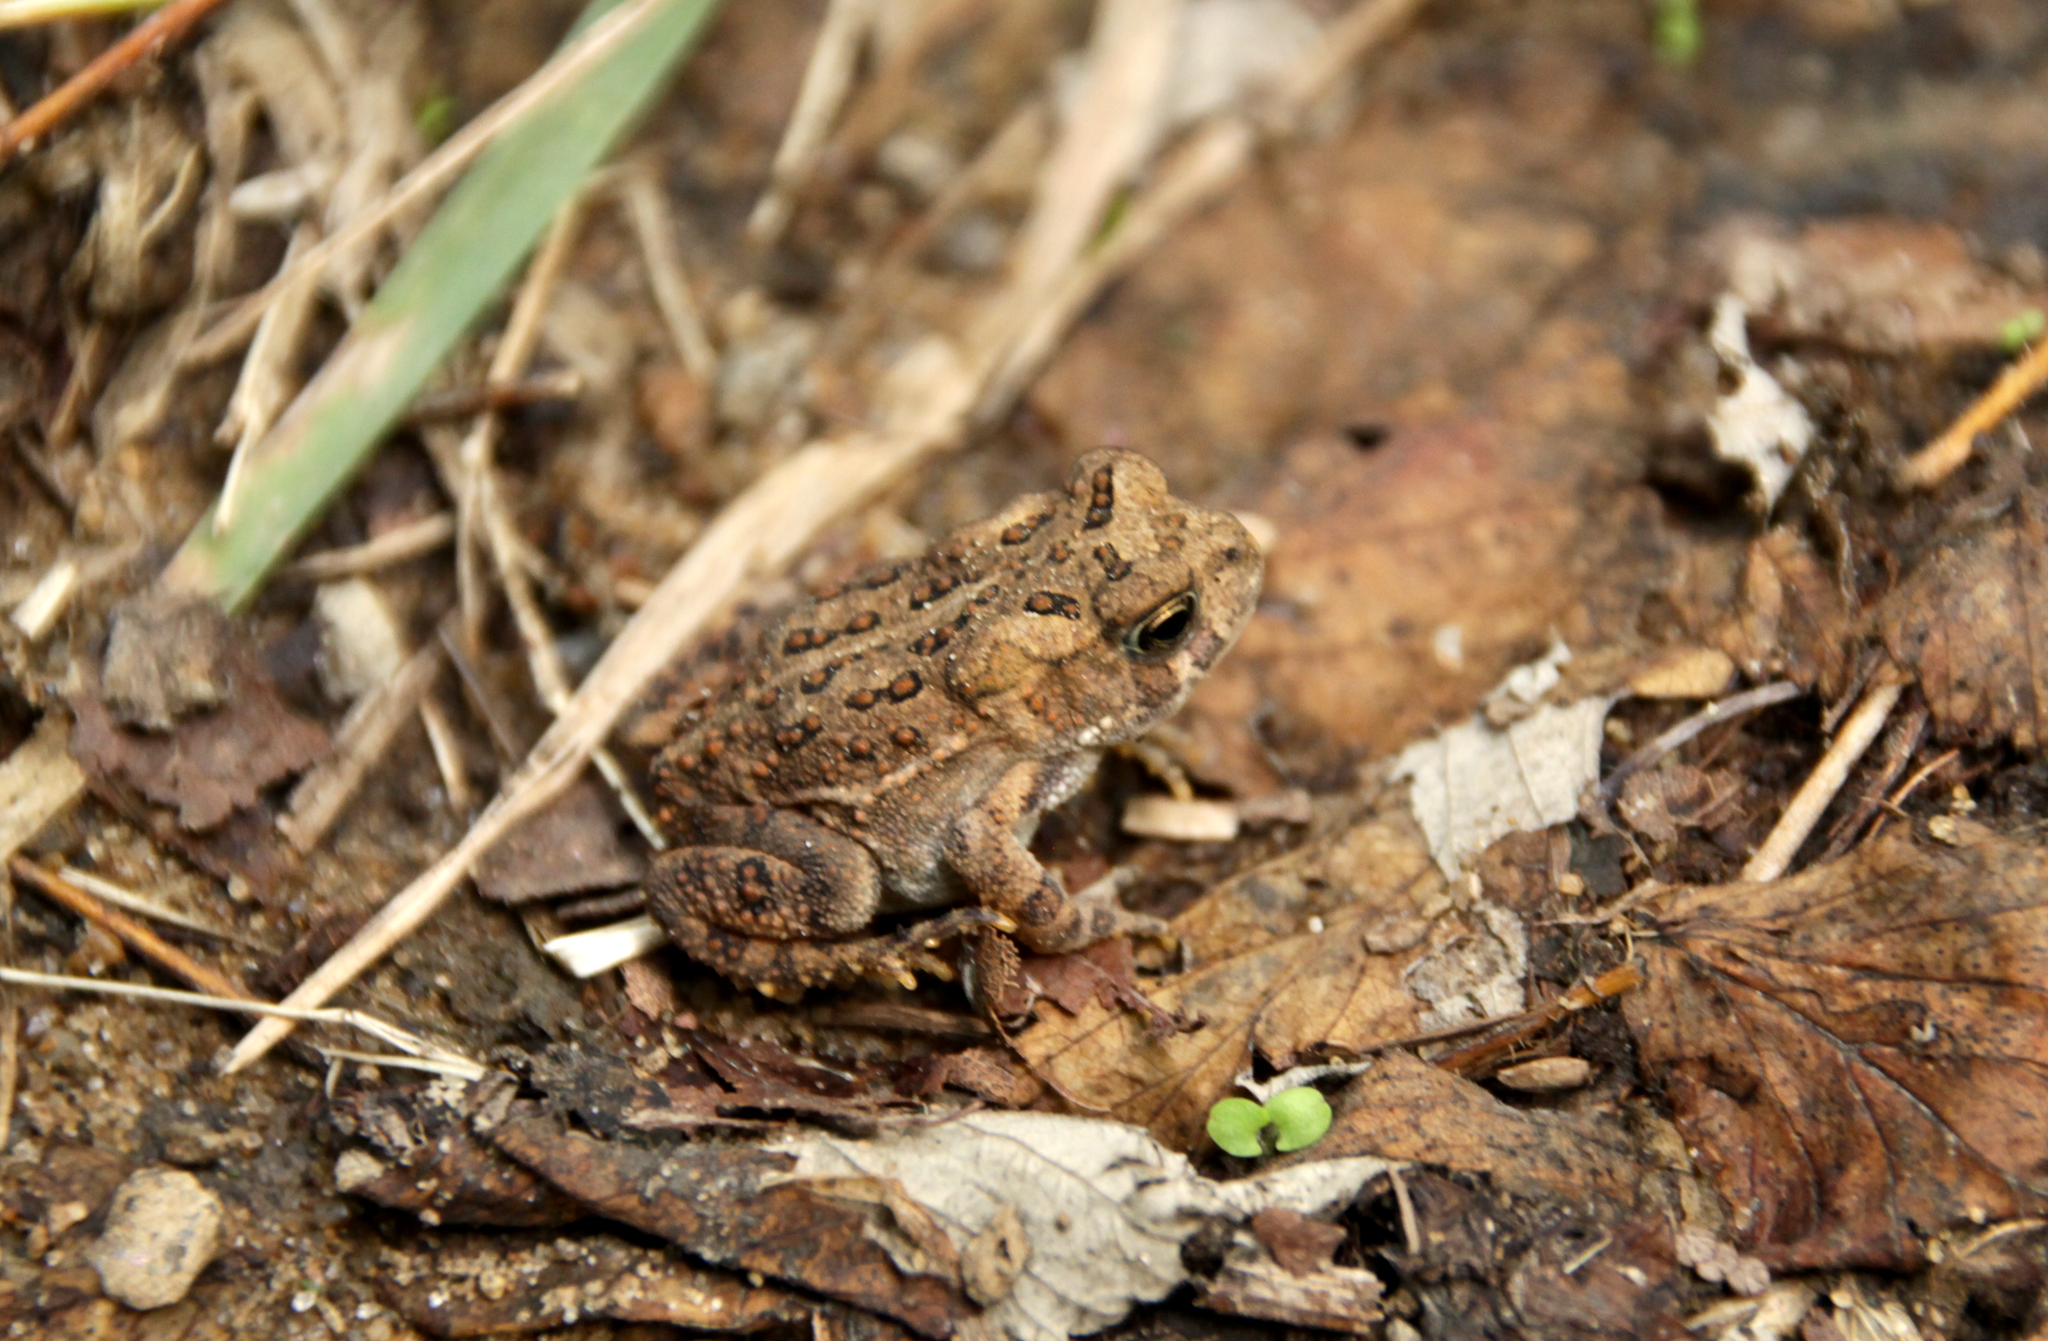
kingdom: Animalia
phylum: Chordata
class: Amphibia
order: Anura
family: Bufonidae
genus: Anaxyrus
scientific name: Anaxyrus americanus
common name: American toad
